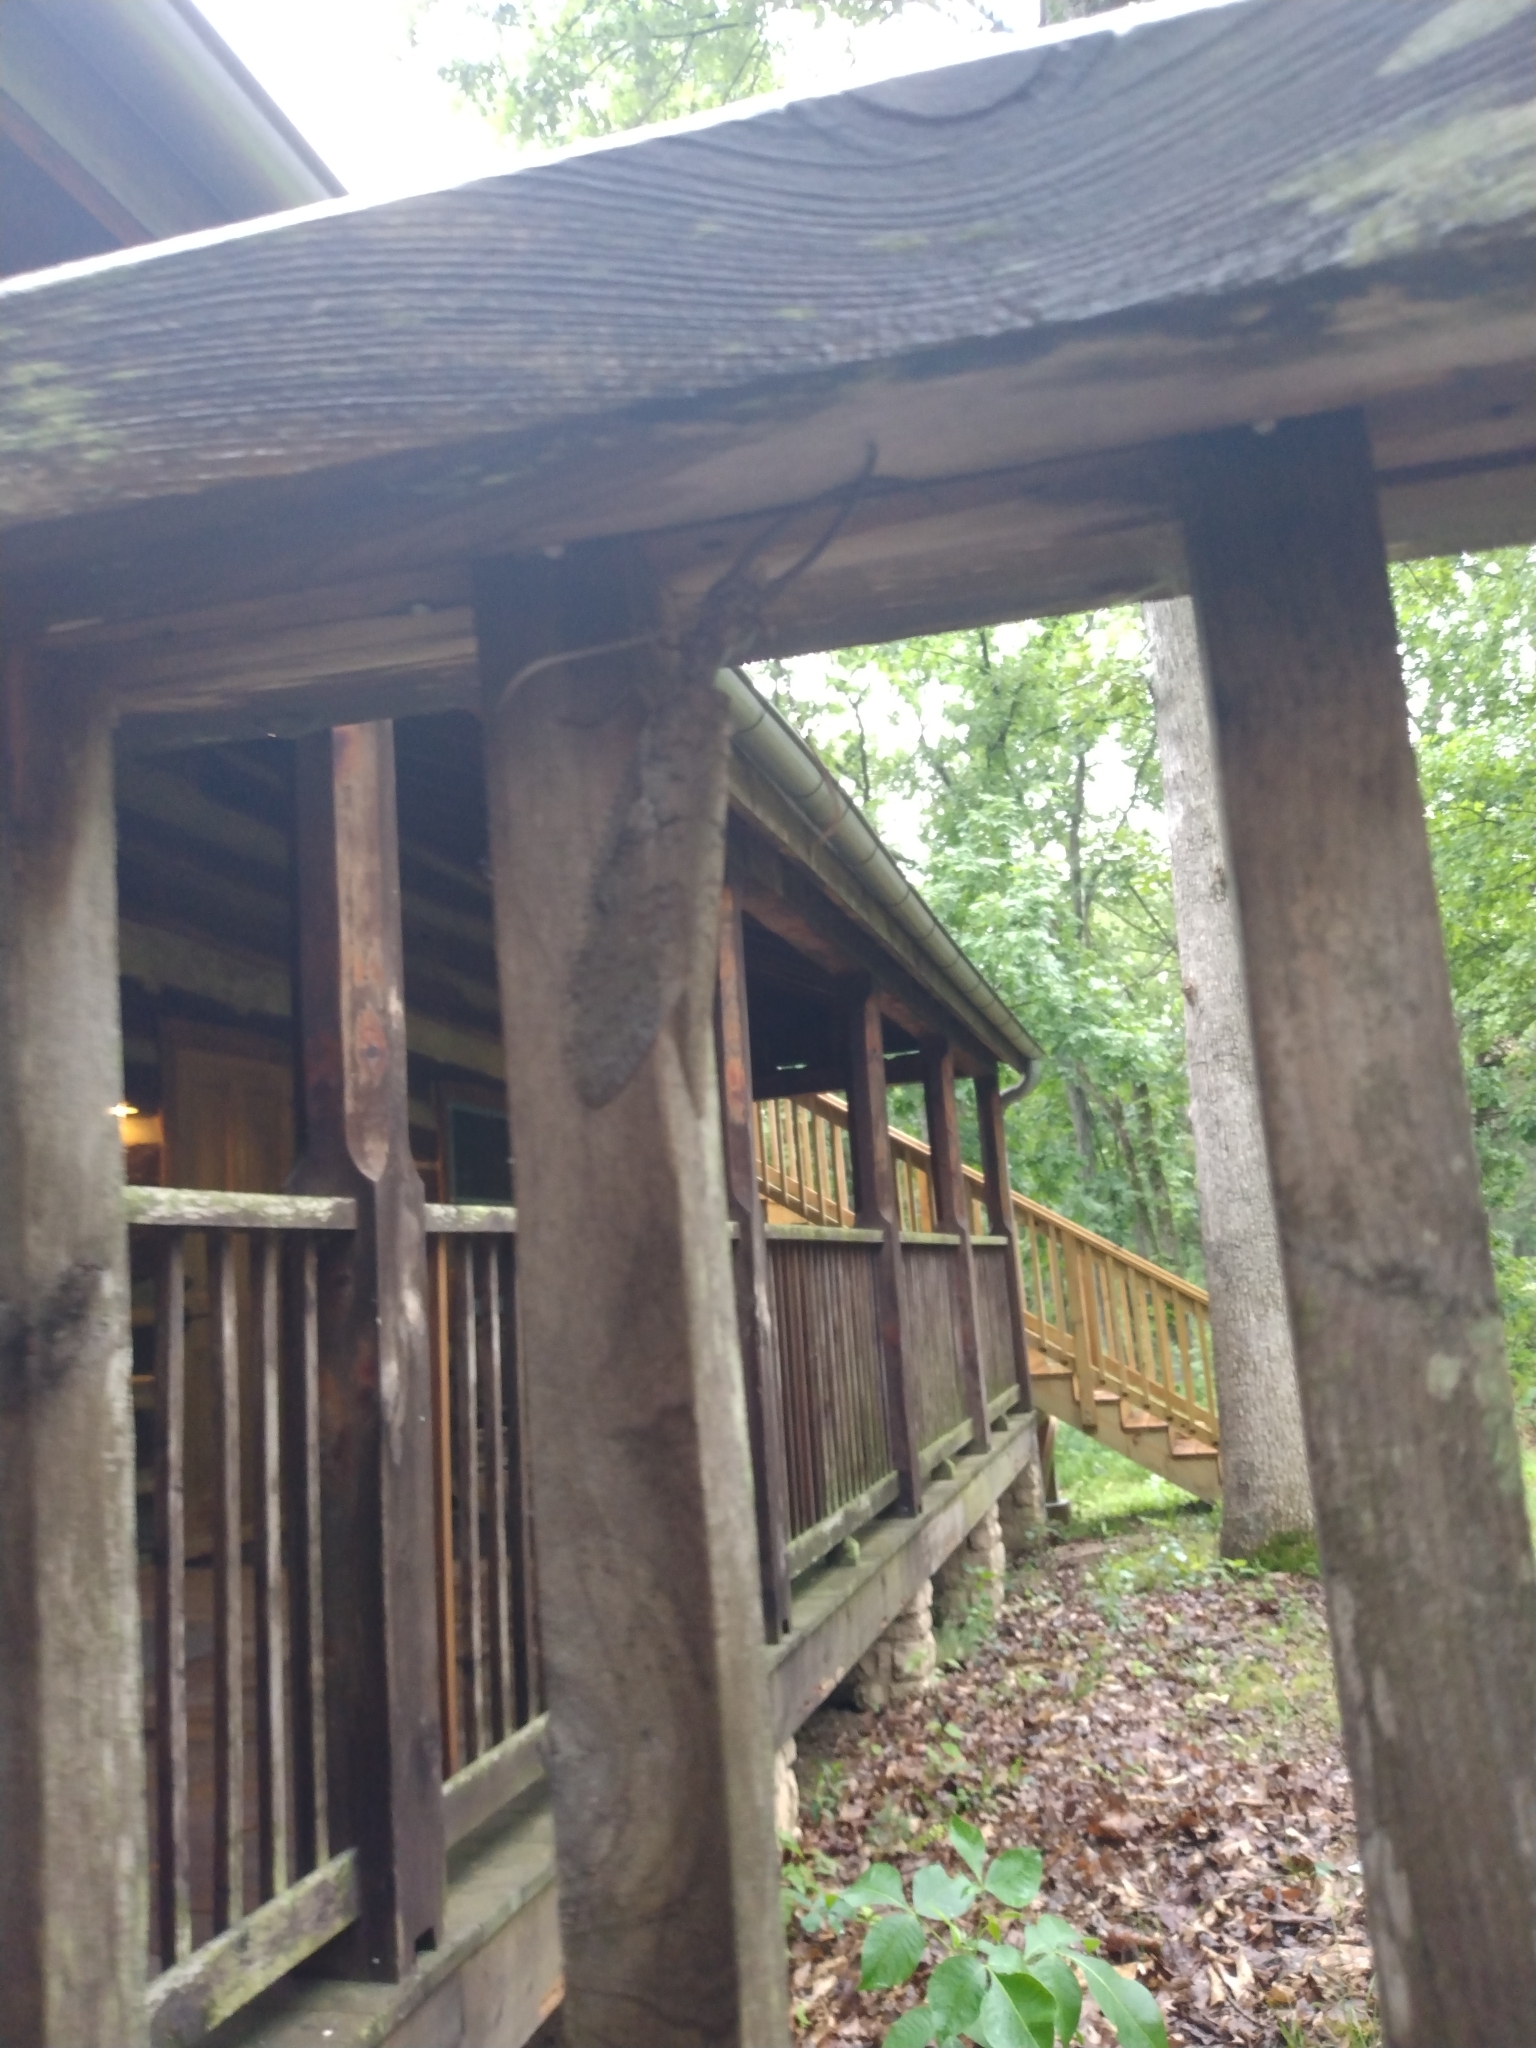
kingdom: Animalia
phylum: Arthropoda
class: Insecta
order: Megaloptera
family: Corydalidae
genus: Corydalus
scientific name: Corydalus cornutus
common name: Dobsonfly
